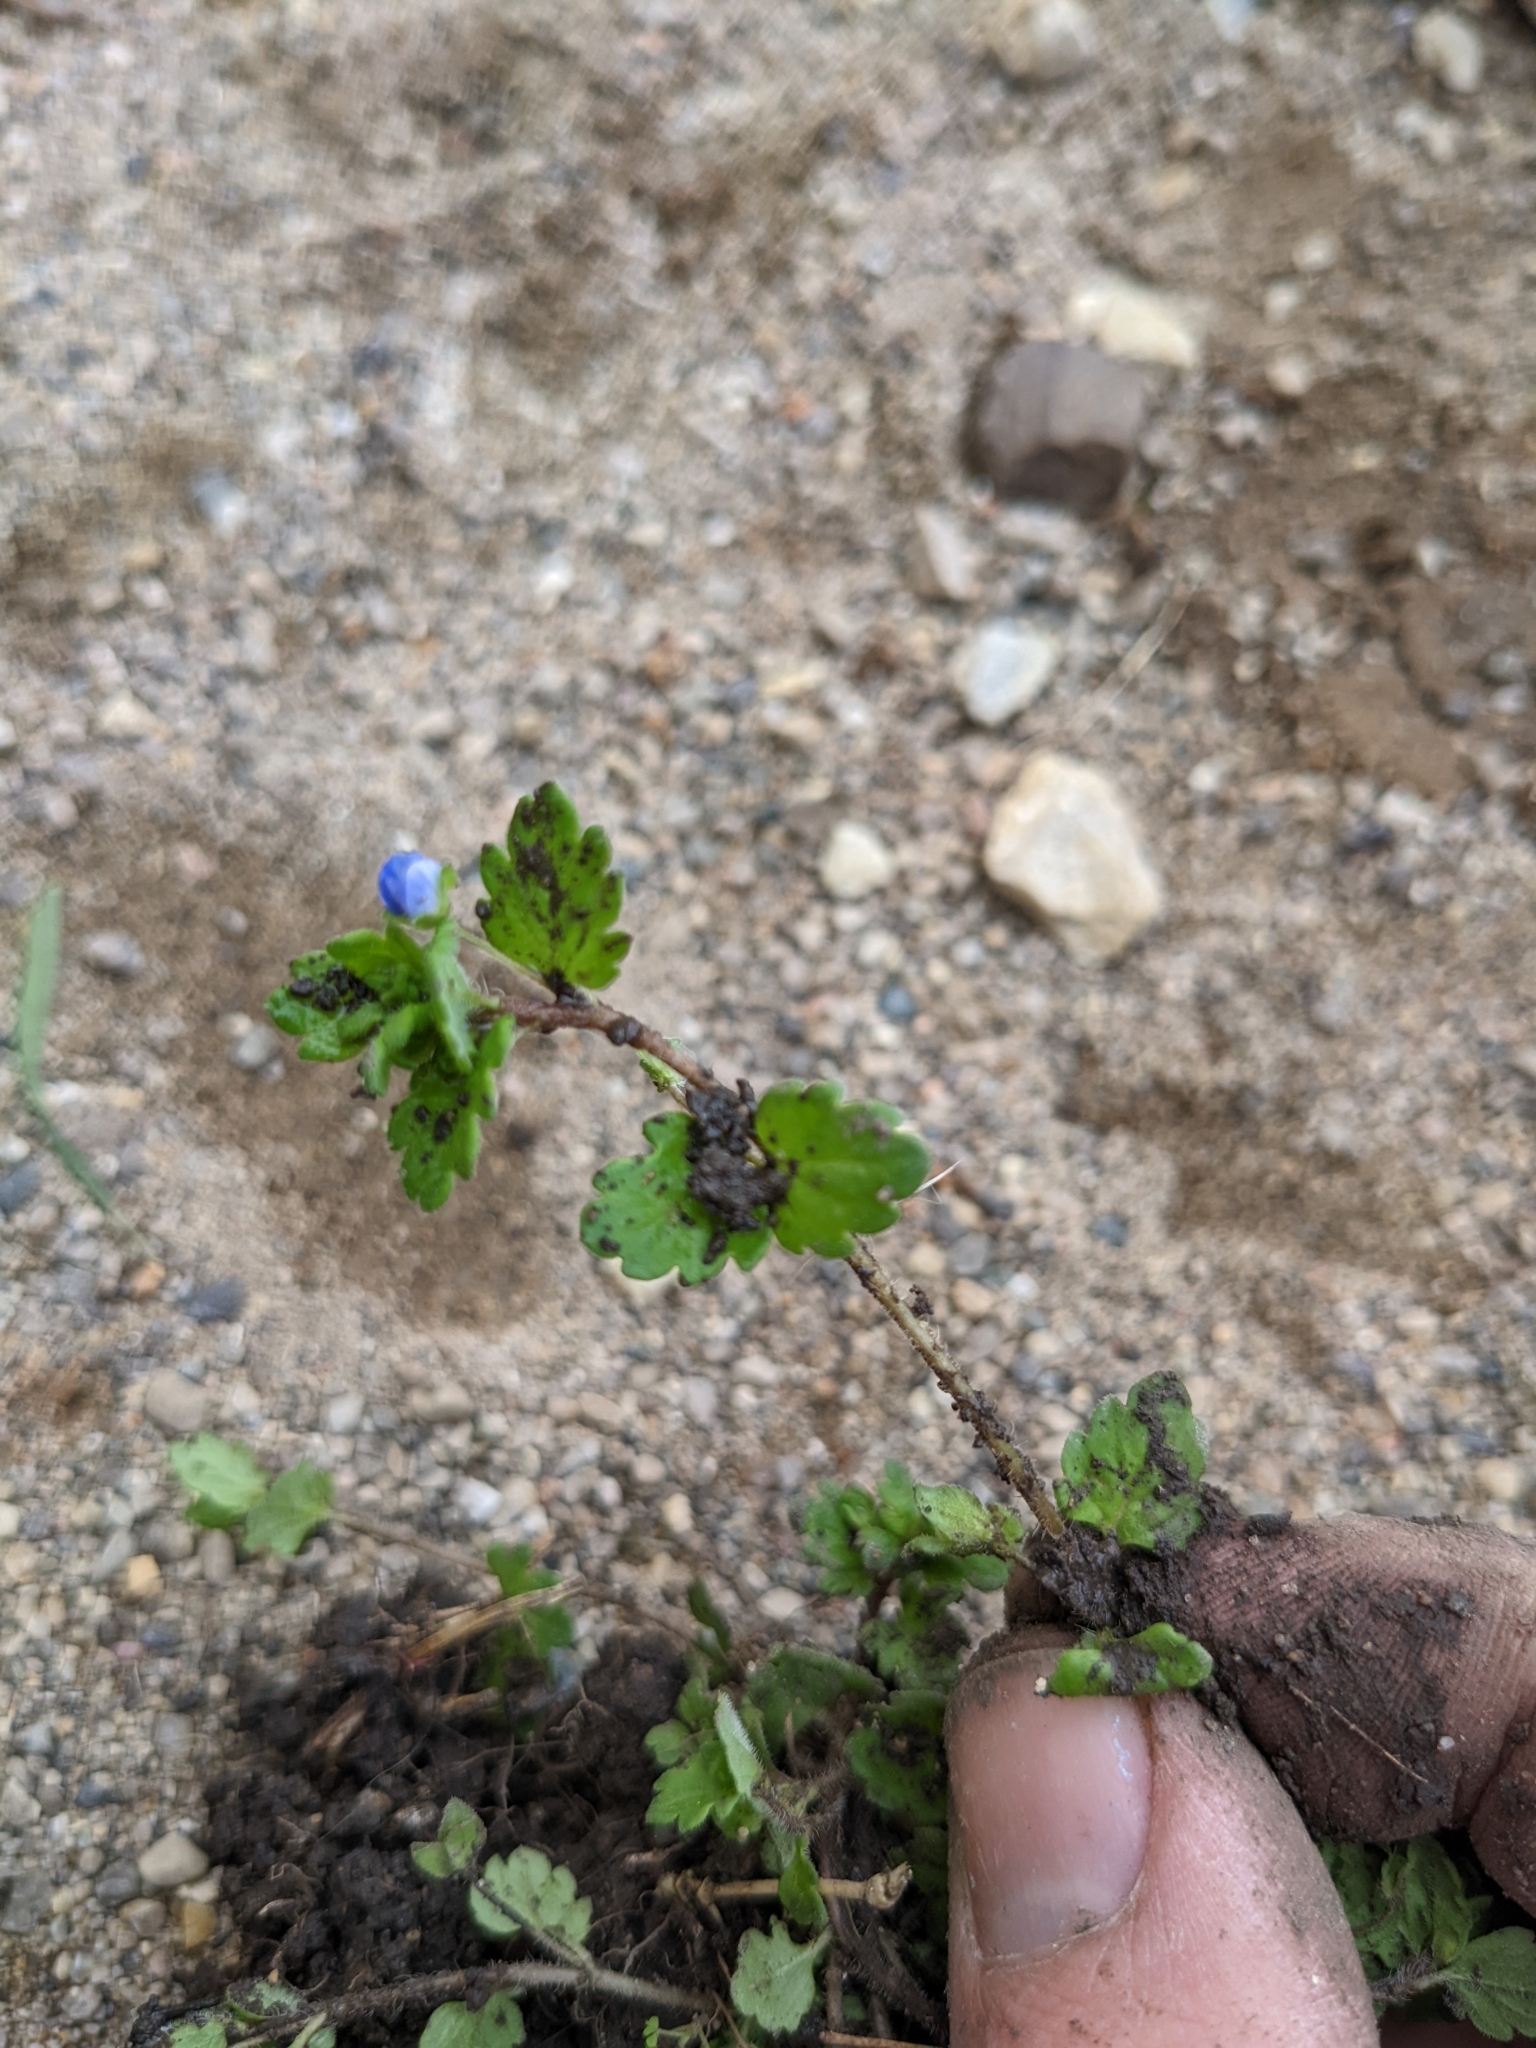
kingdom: Plantae
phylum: Tracheophyta
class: Magnoliopsida
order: Lamiales
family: Plantaginaceae
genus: Veronica
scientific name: Veronica persica
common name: Common field-speedwell
